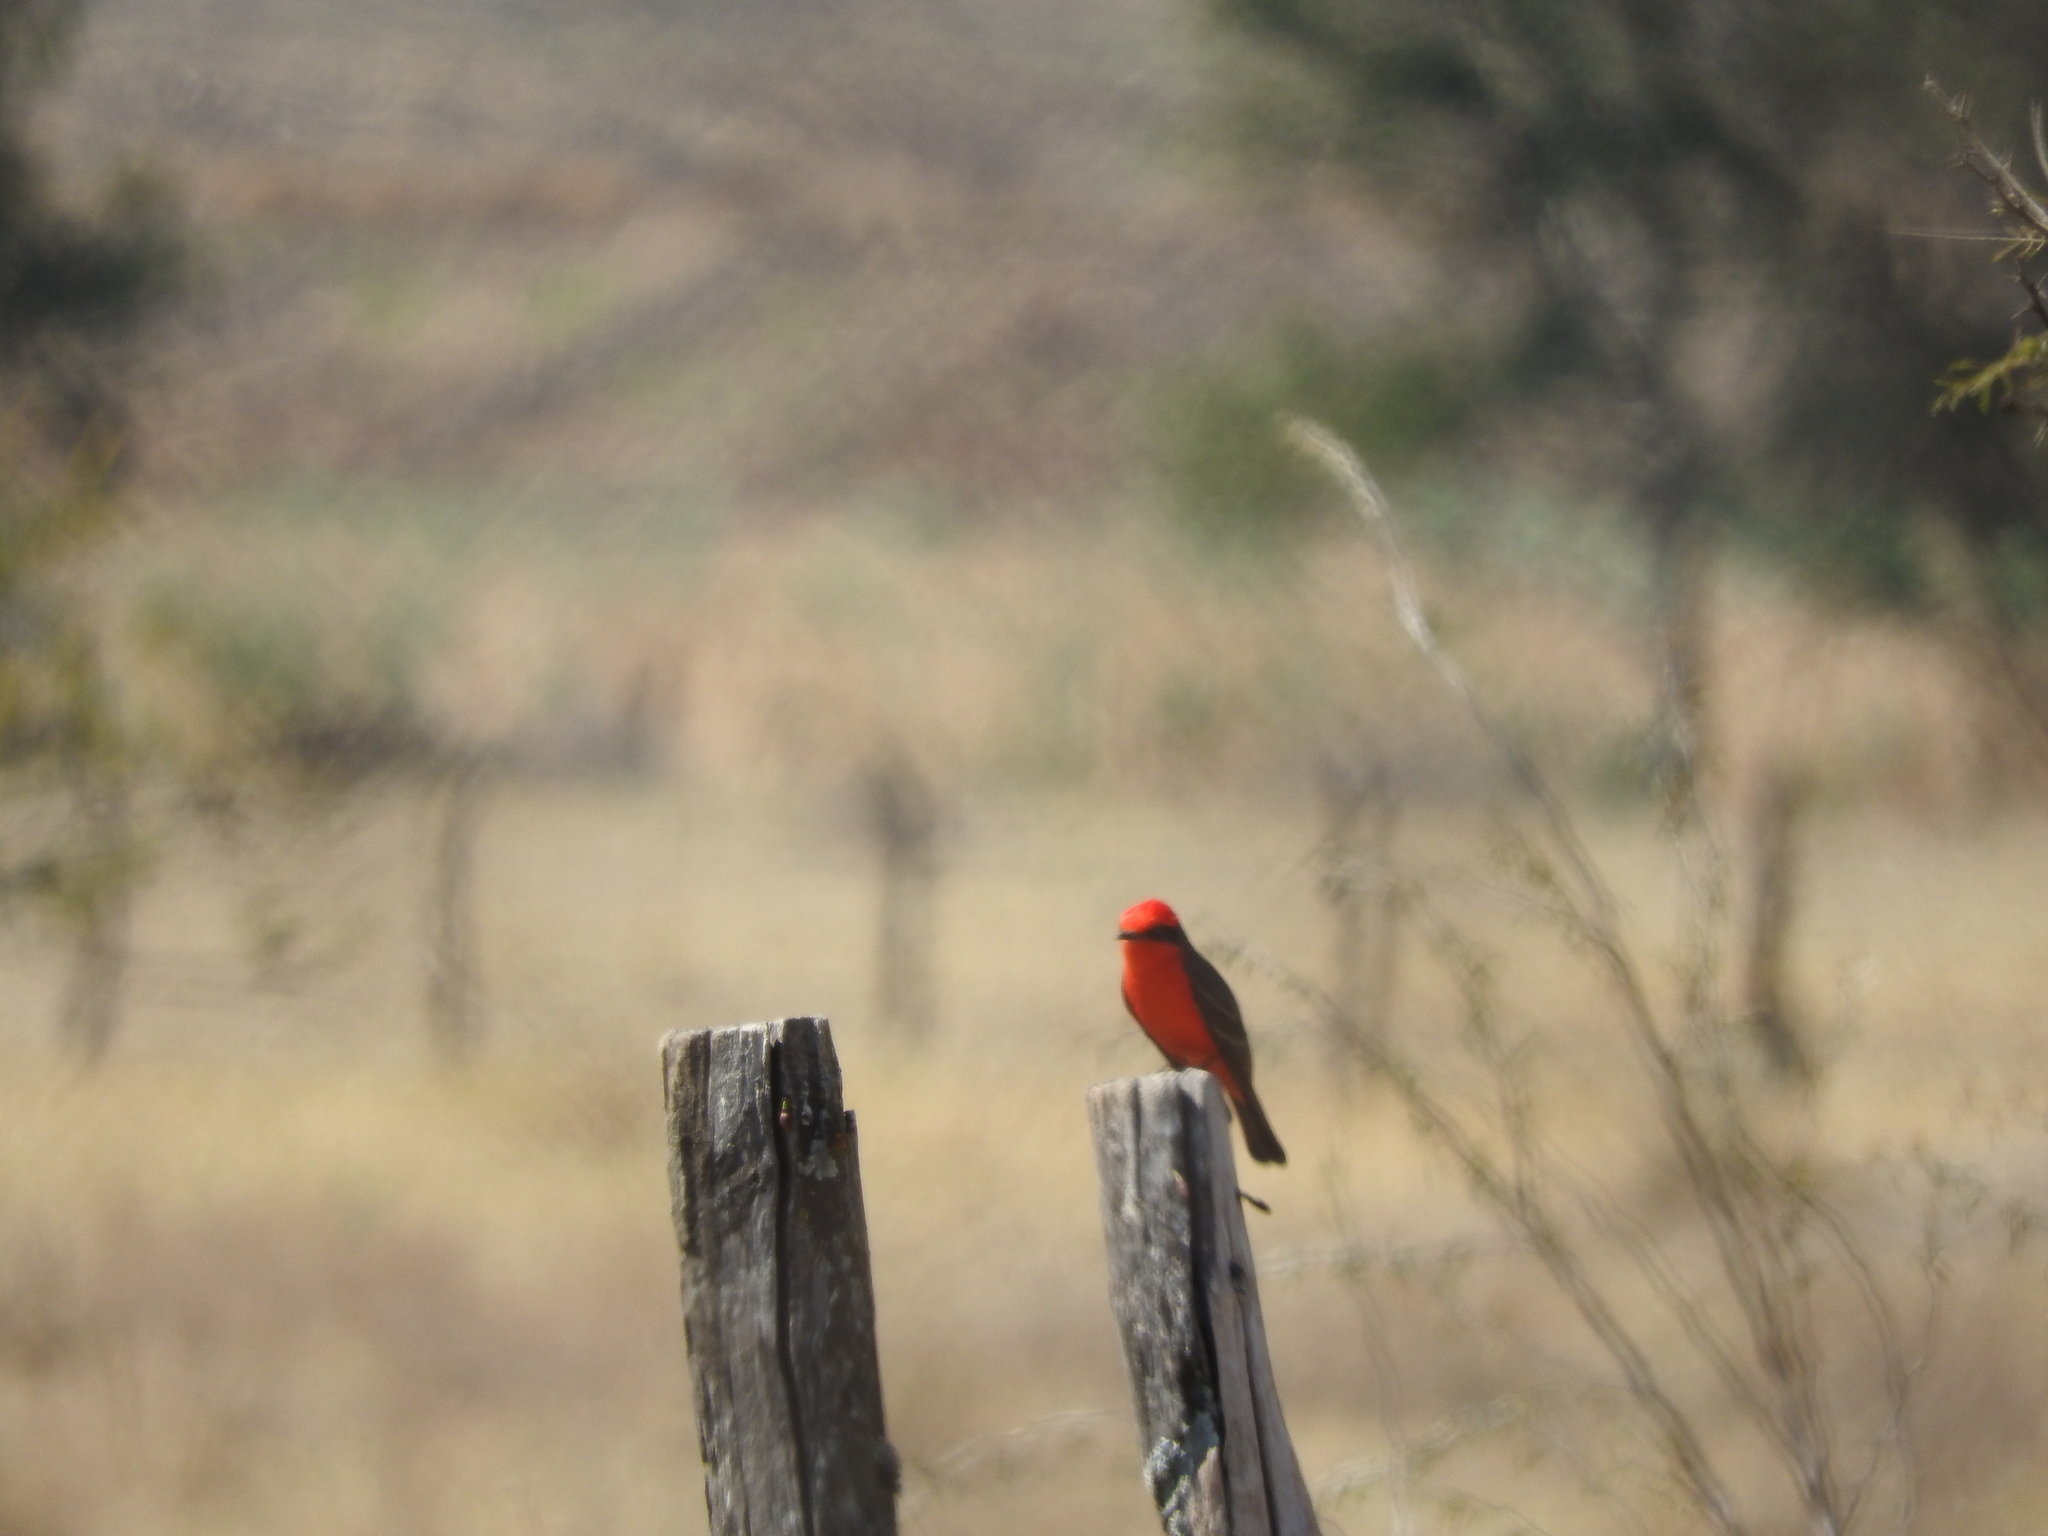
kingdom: Animalia
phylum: Chordata
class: Aves
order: Passeriformes
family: Tyrannidae
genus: Pyrocephalus
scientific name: Pyrocephalus rubinus
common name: Vermilion flycatcher
